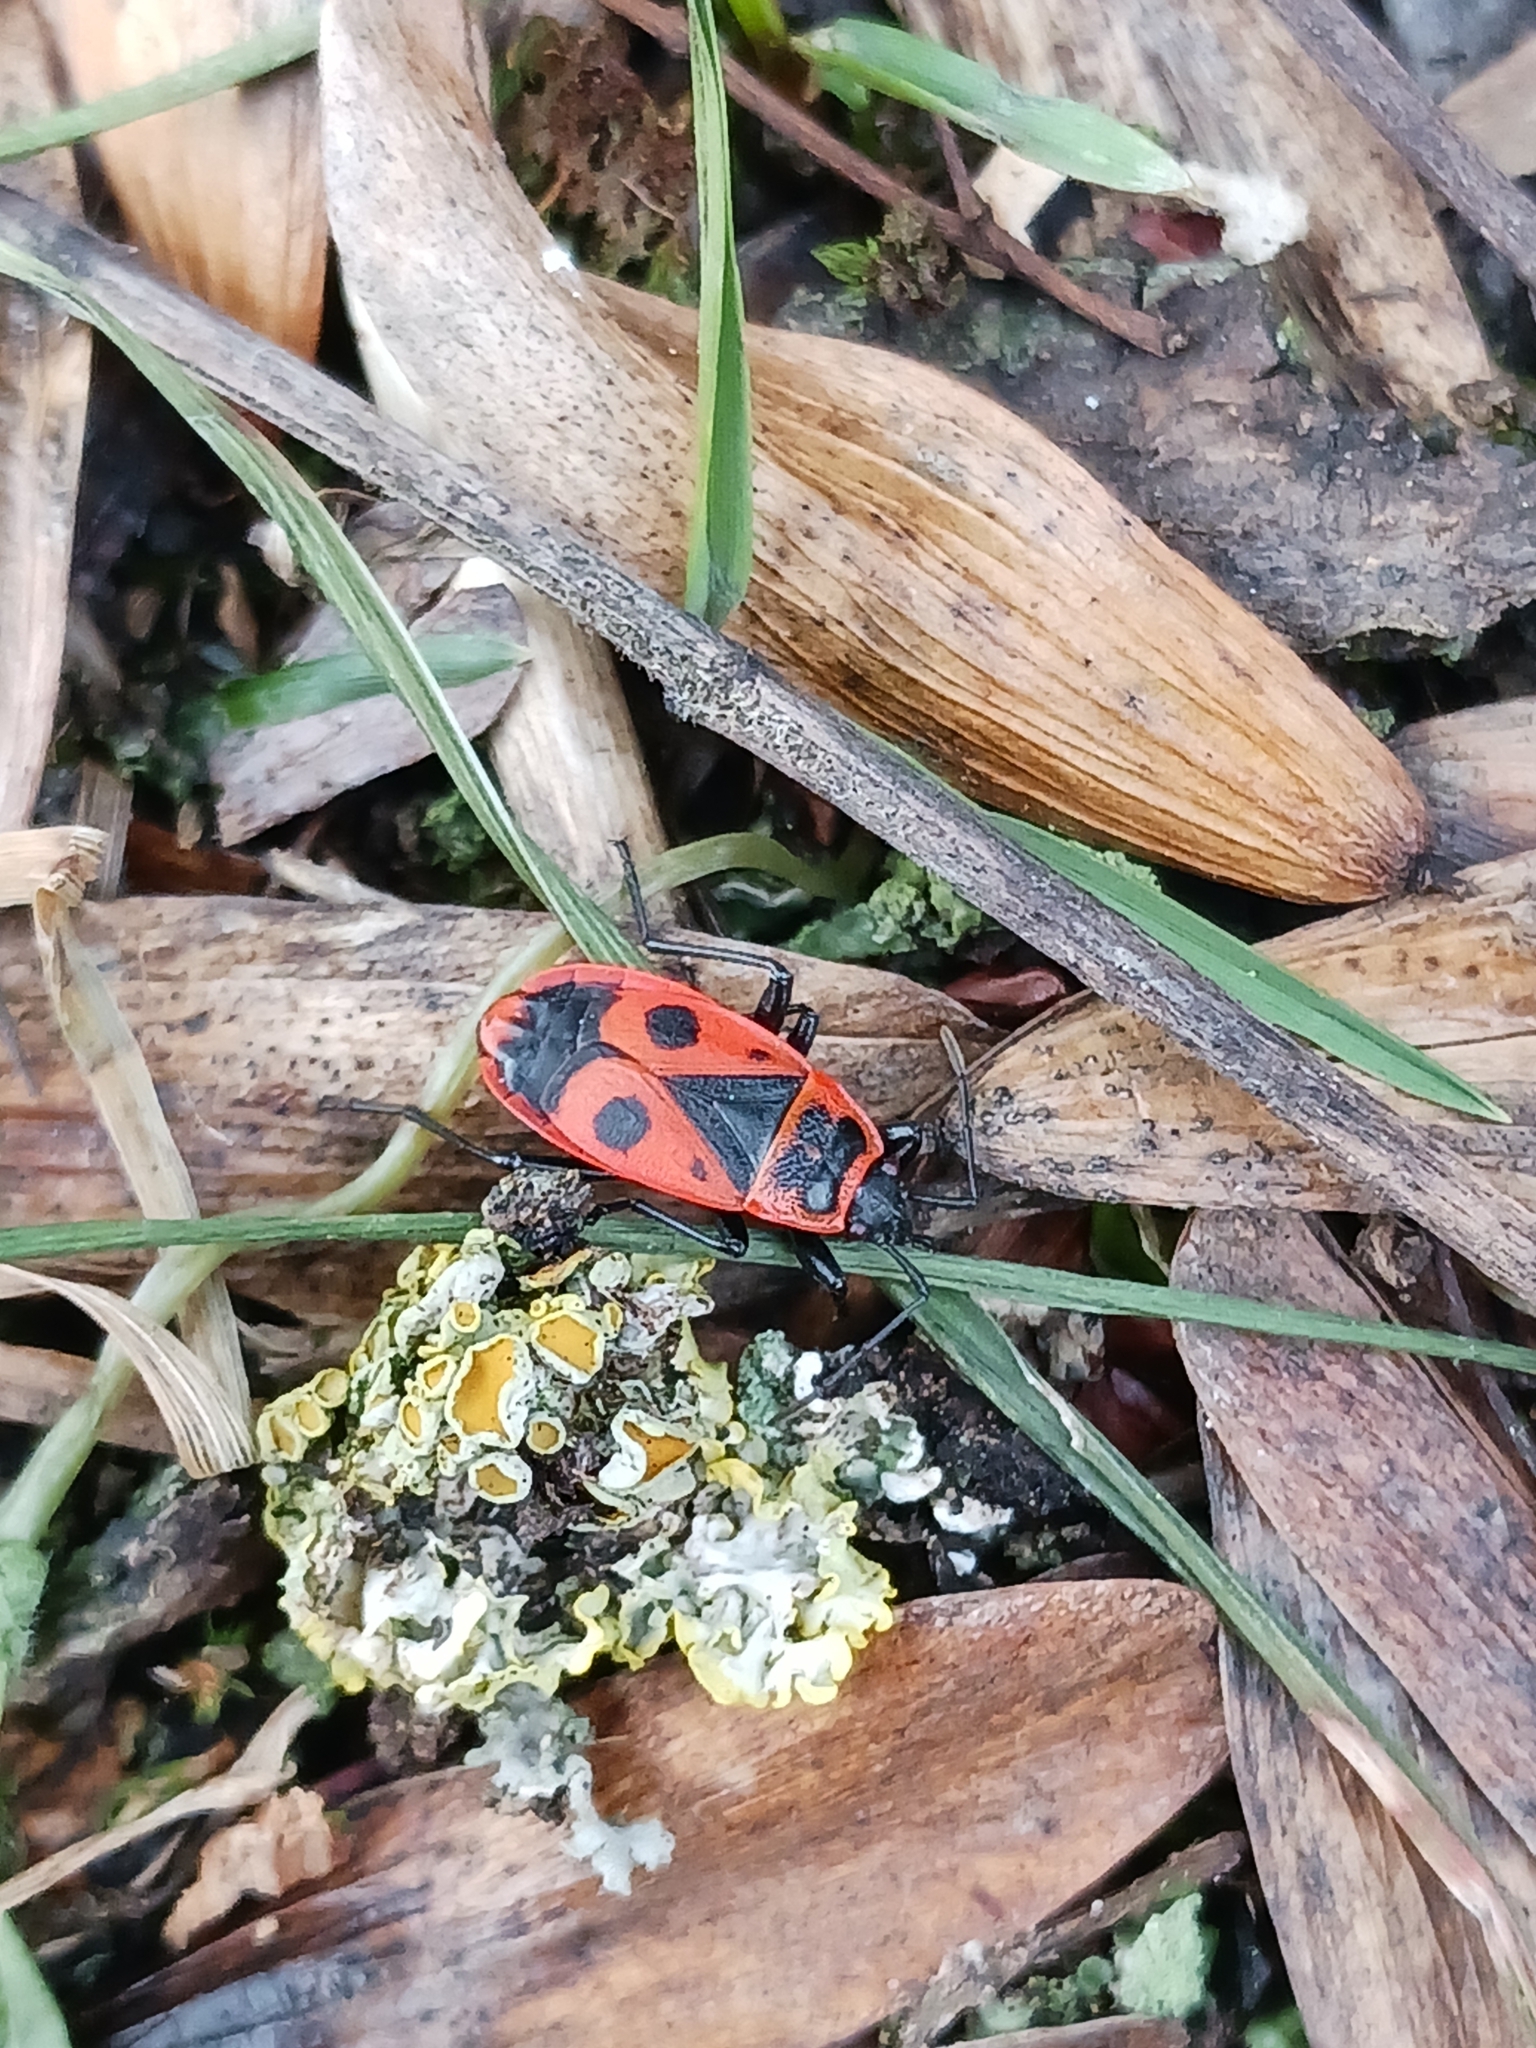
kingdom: Animalia
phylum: Arthropoda
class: Insecta
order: Hemiptera
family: Pyrrhocoridae
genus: Pyrrhocoris
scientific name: Pyrrhocoris apterus
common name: Firebug
